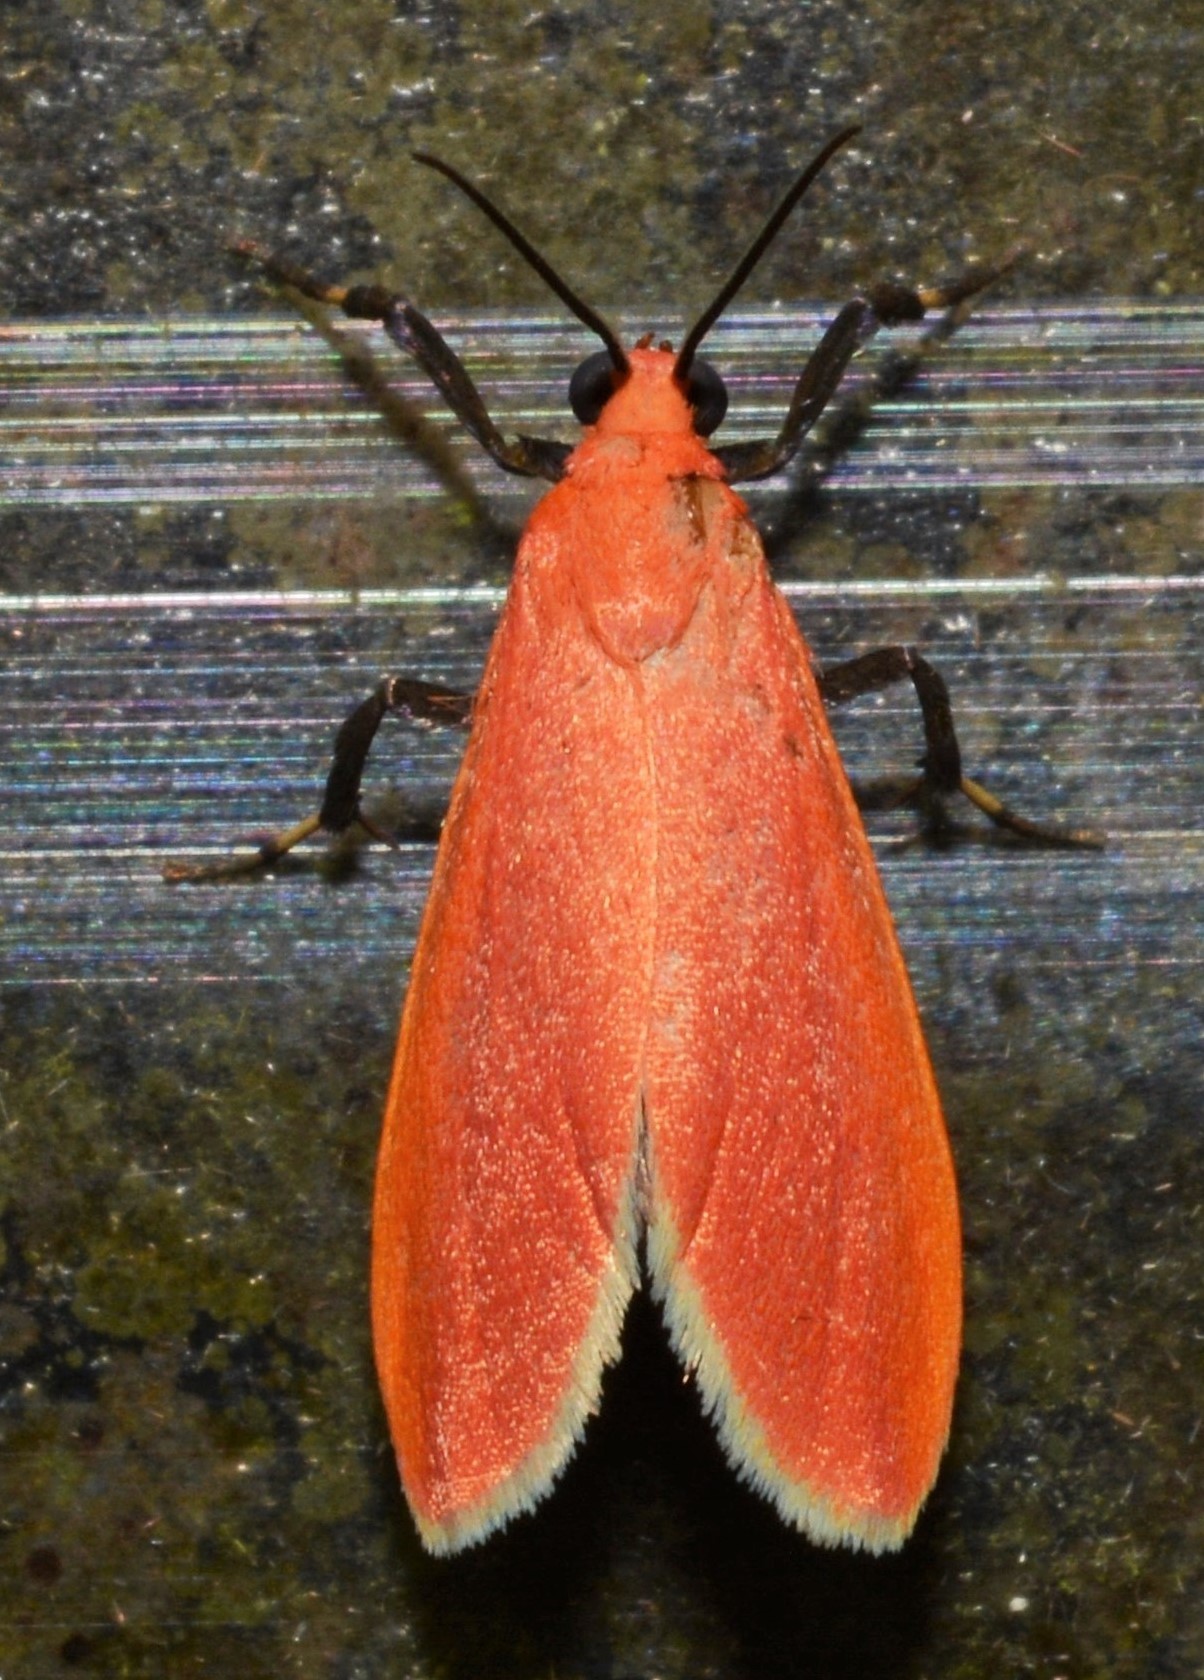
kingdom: Animalia
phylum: Arthropoda
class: Insecta
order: Lepidoptera
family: Erebidae
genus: Talara
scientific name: Talara rubida
